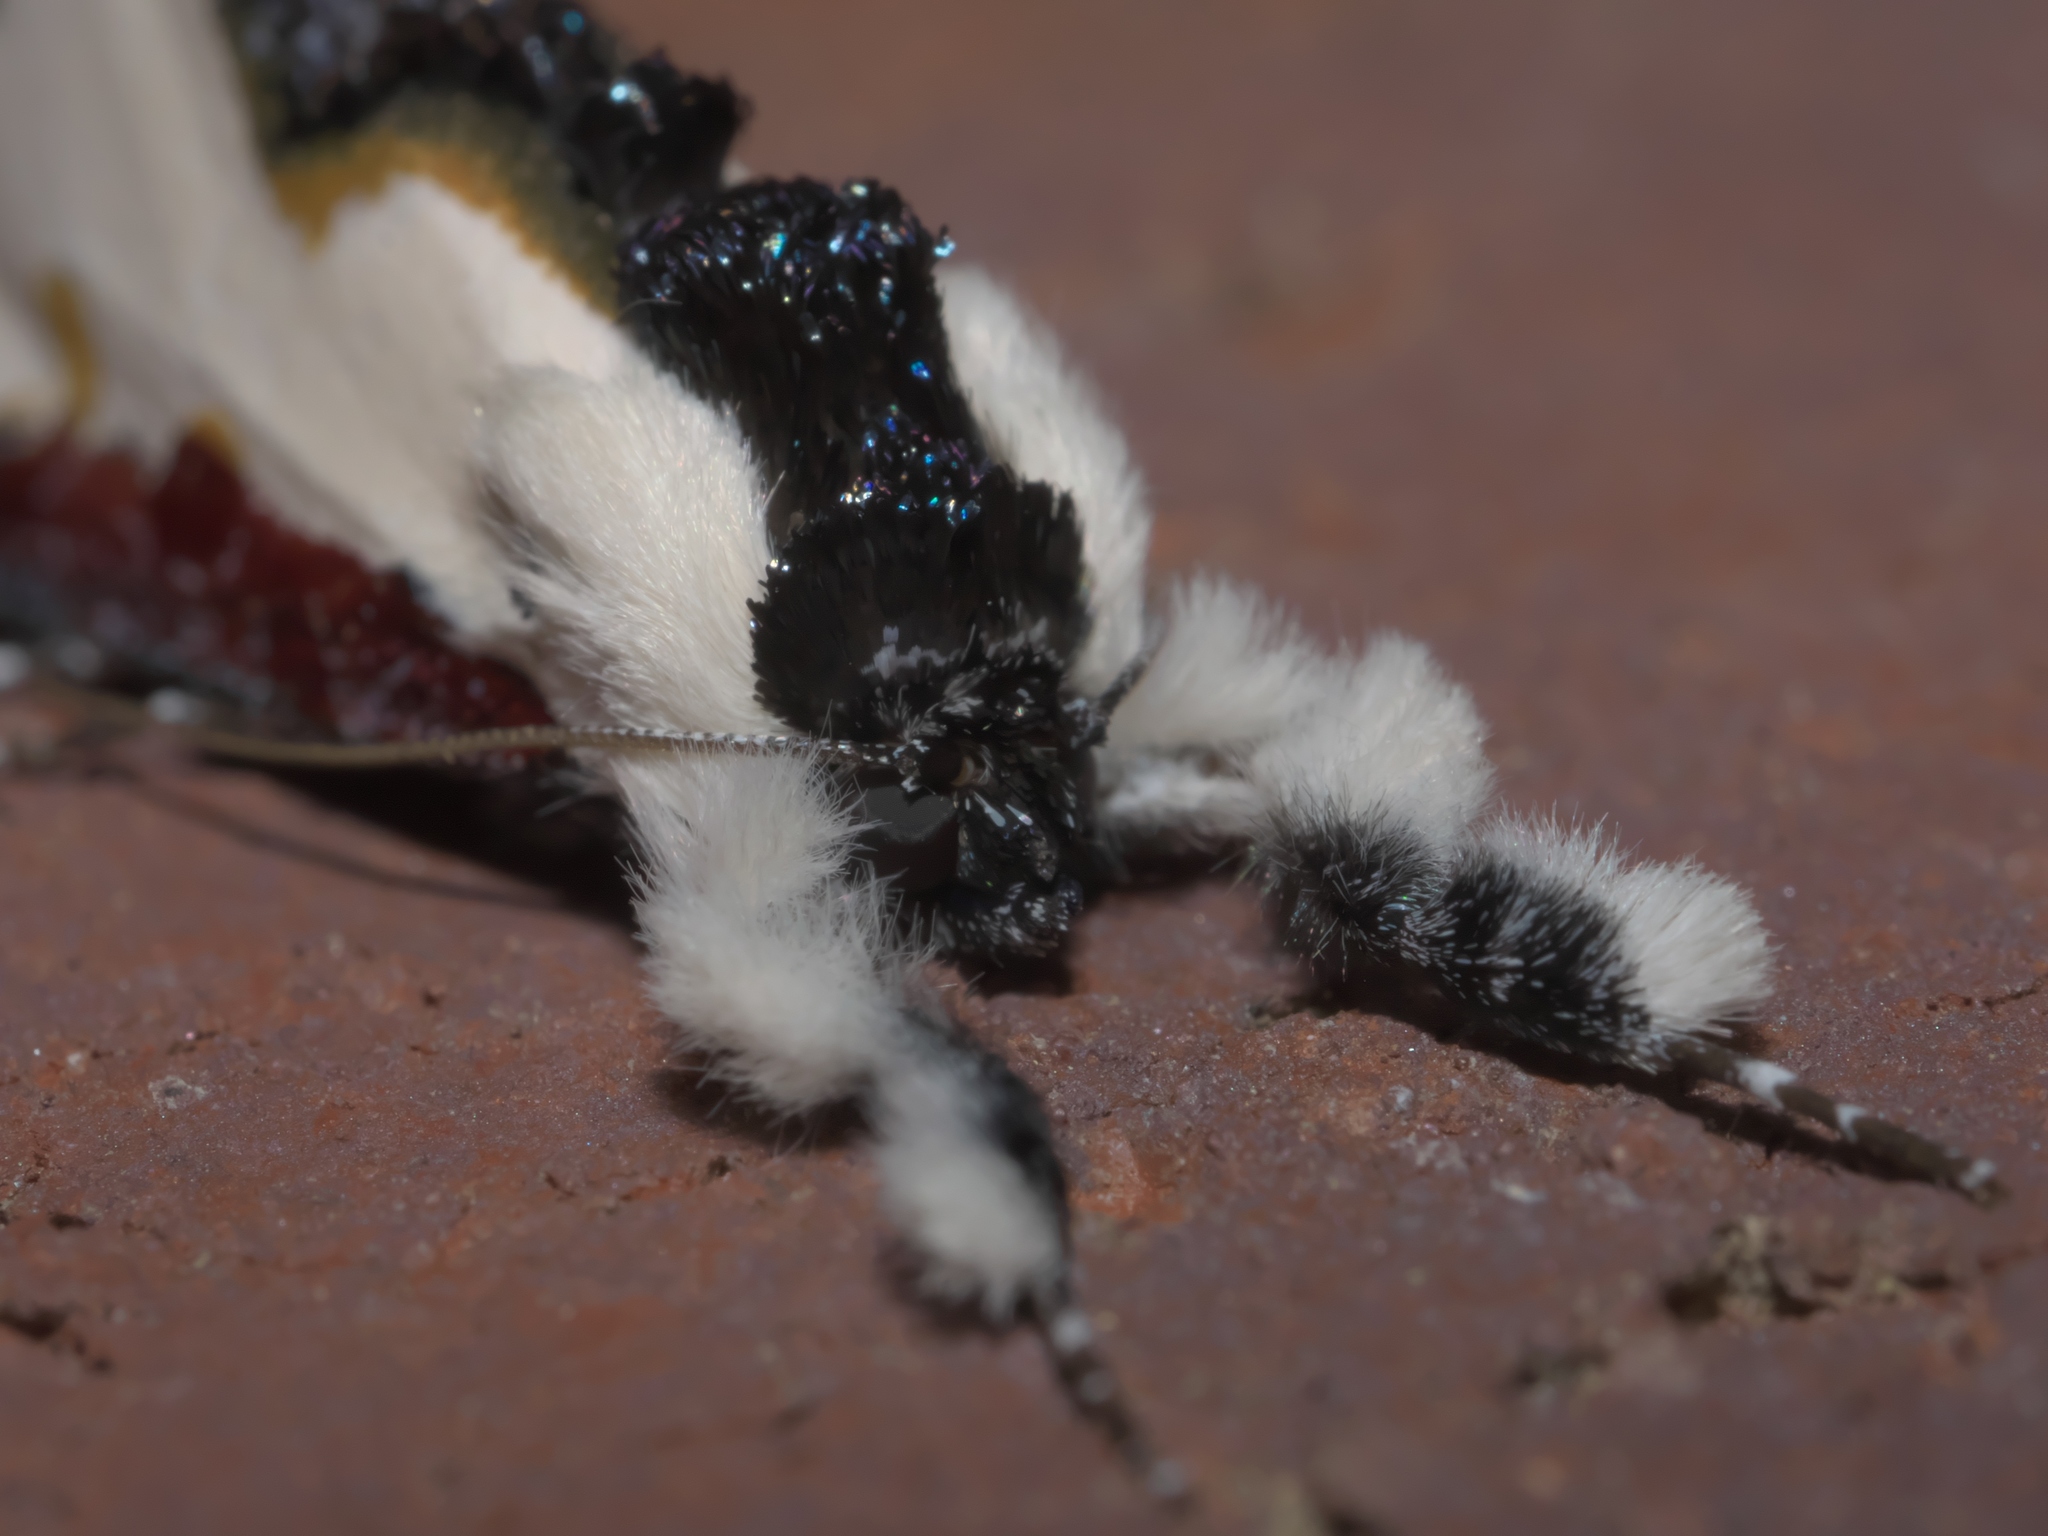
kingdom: Animalia
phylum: Arthropoda
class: Insecta
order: Lepidoptera
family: Noctuidae
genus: Eudryas
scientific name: Eudryas unio
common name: Pearly wood-nymph
